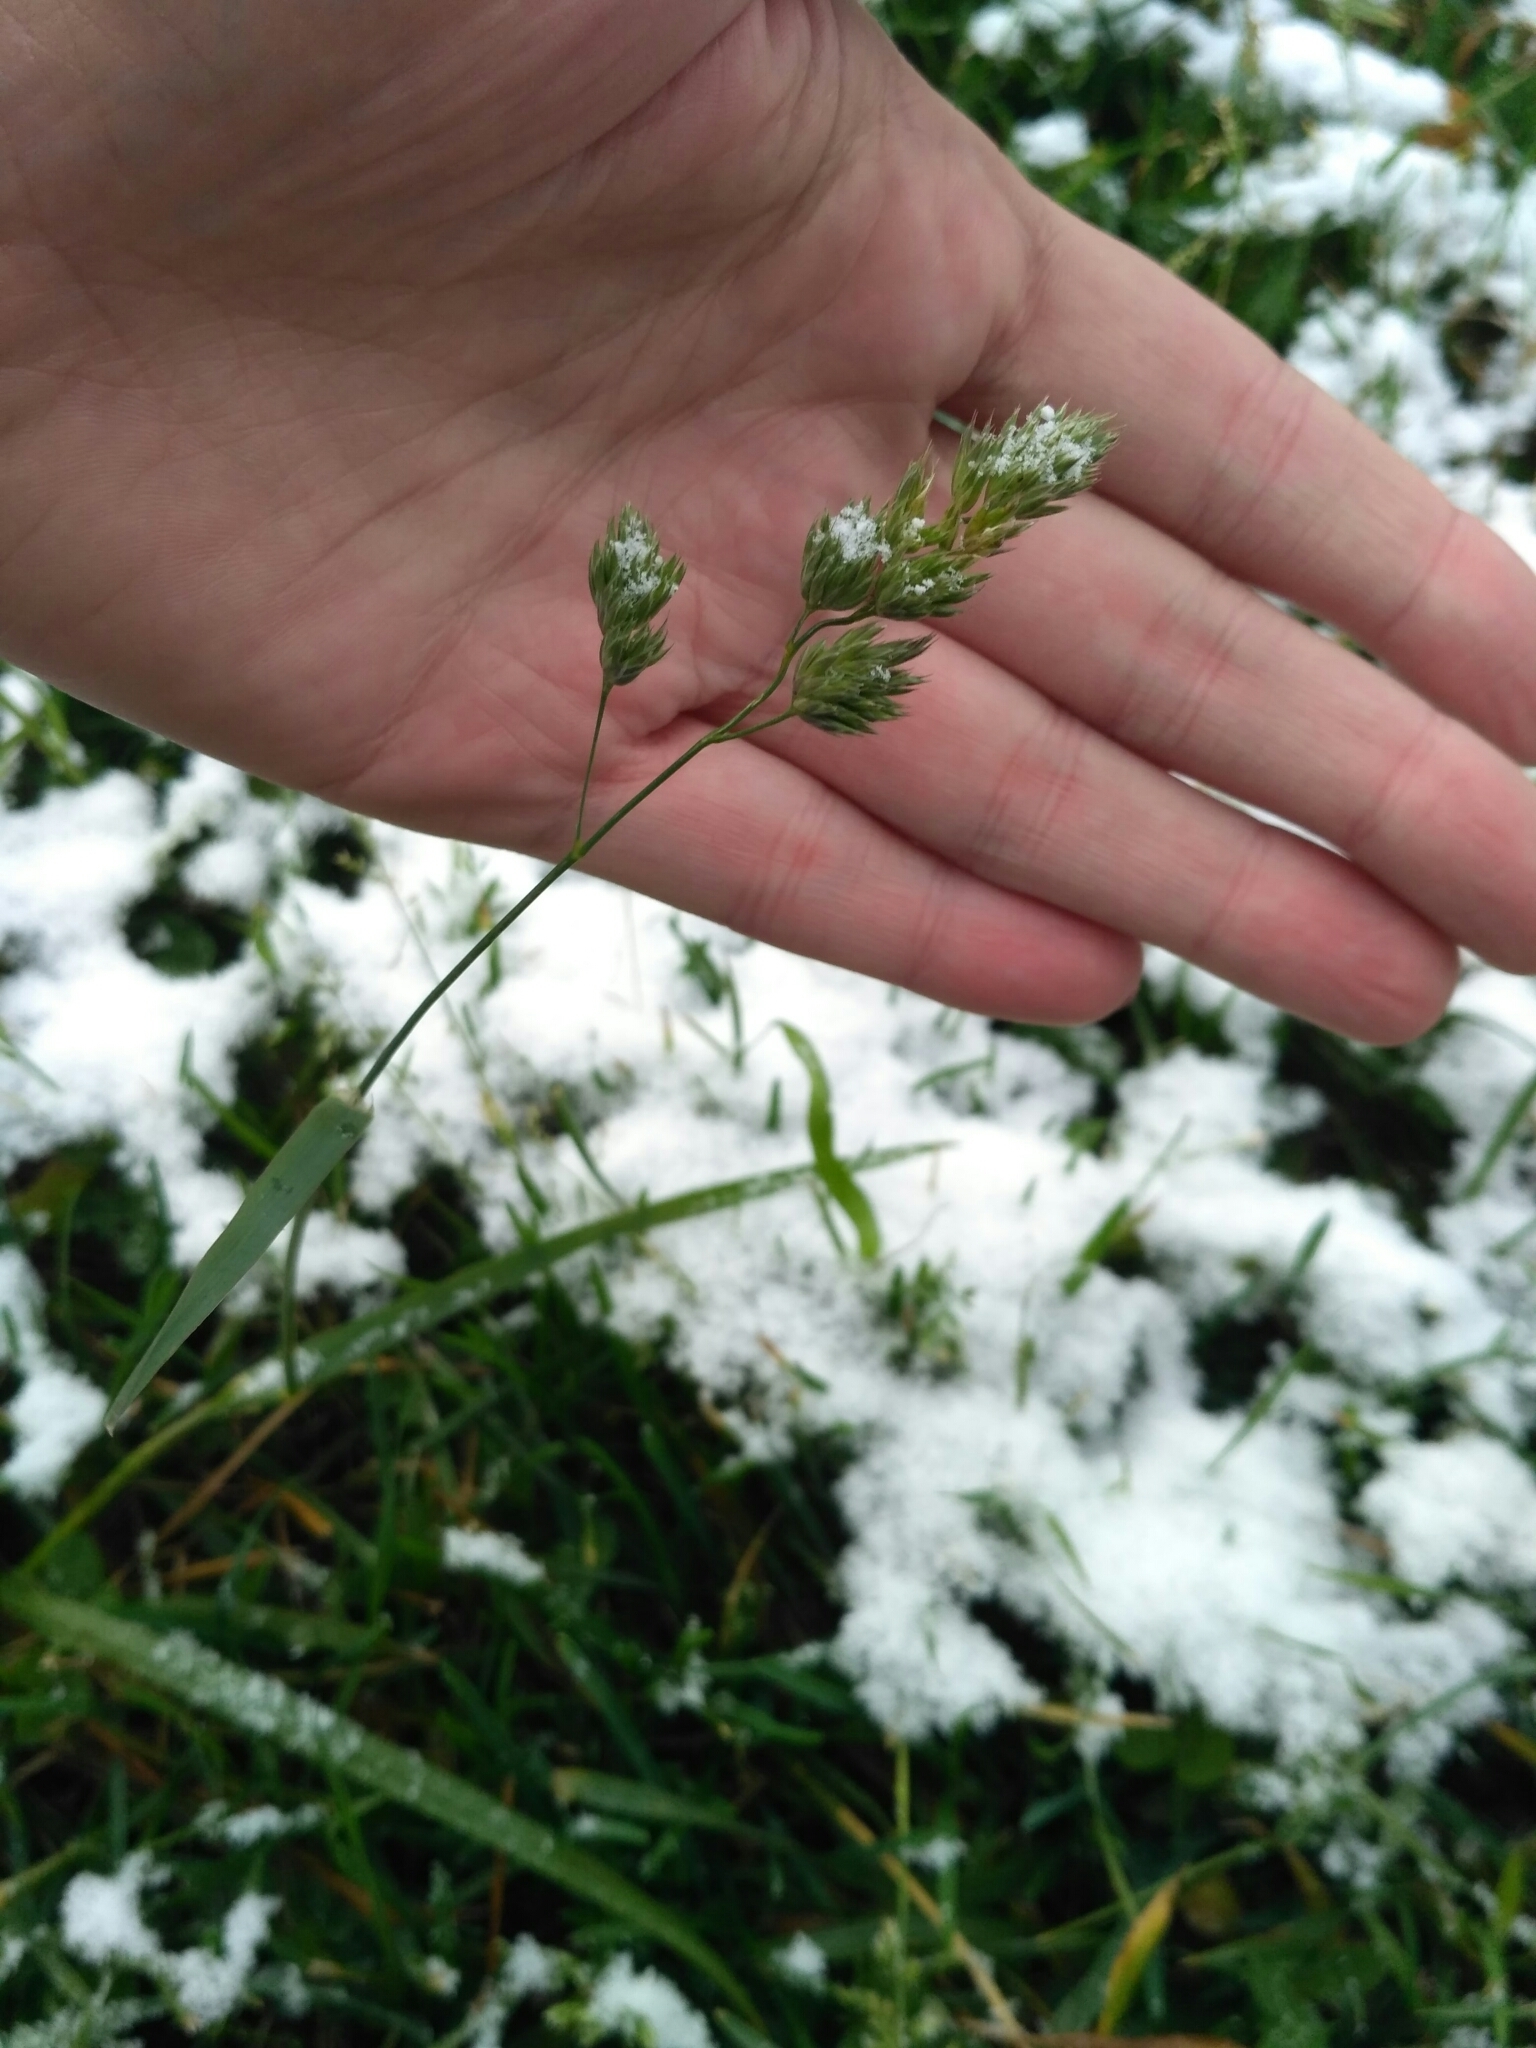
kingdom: Plantae
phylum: Tracheophyta
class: Liliopsida
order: Poales
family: Poaceae
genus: Dactylis
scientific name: Dactylis glomerata
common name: Orchardgrass
